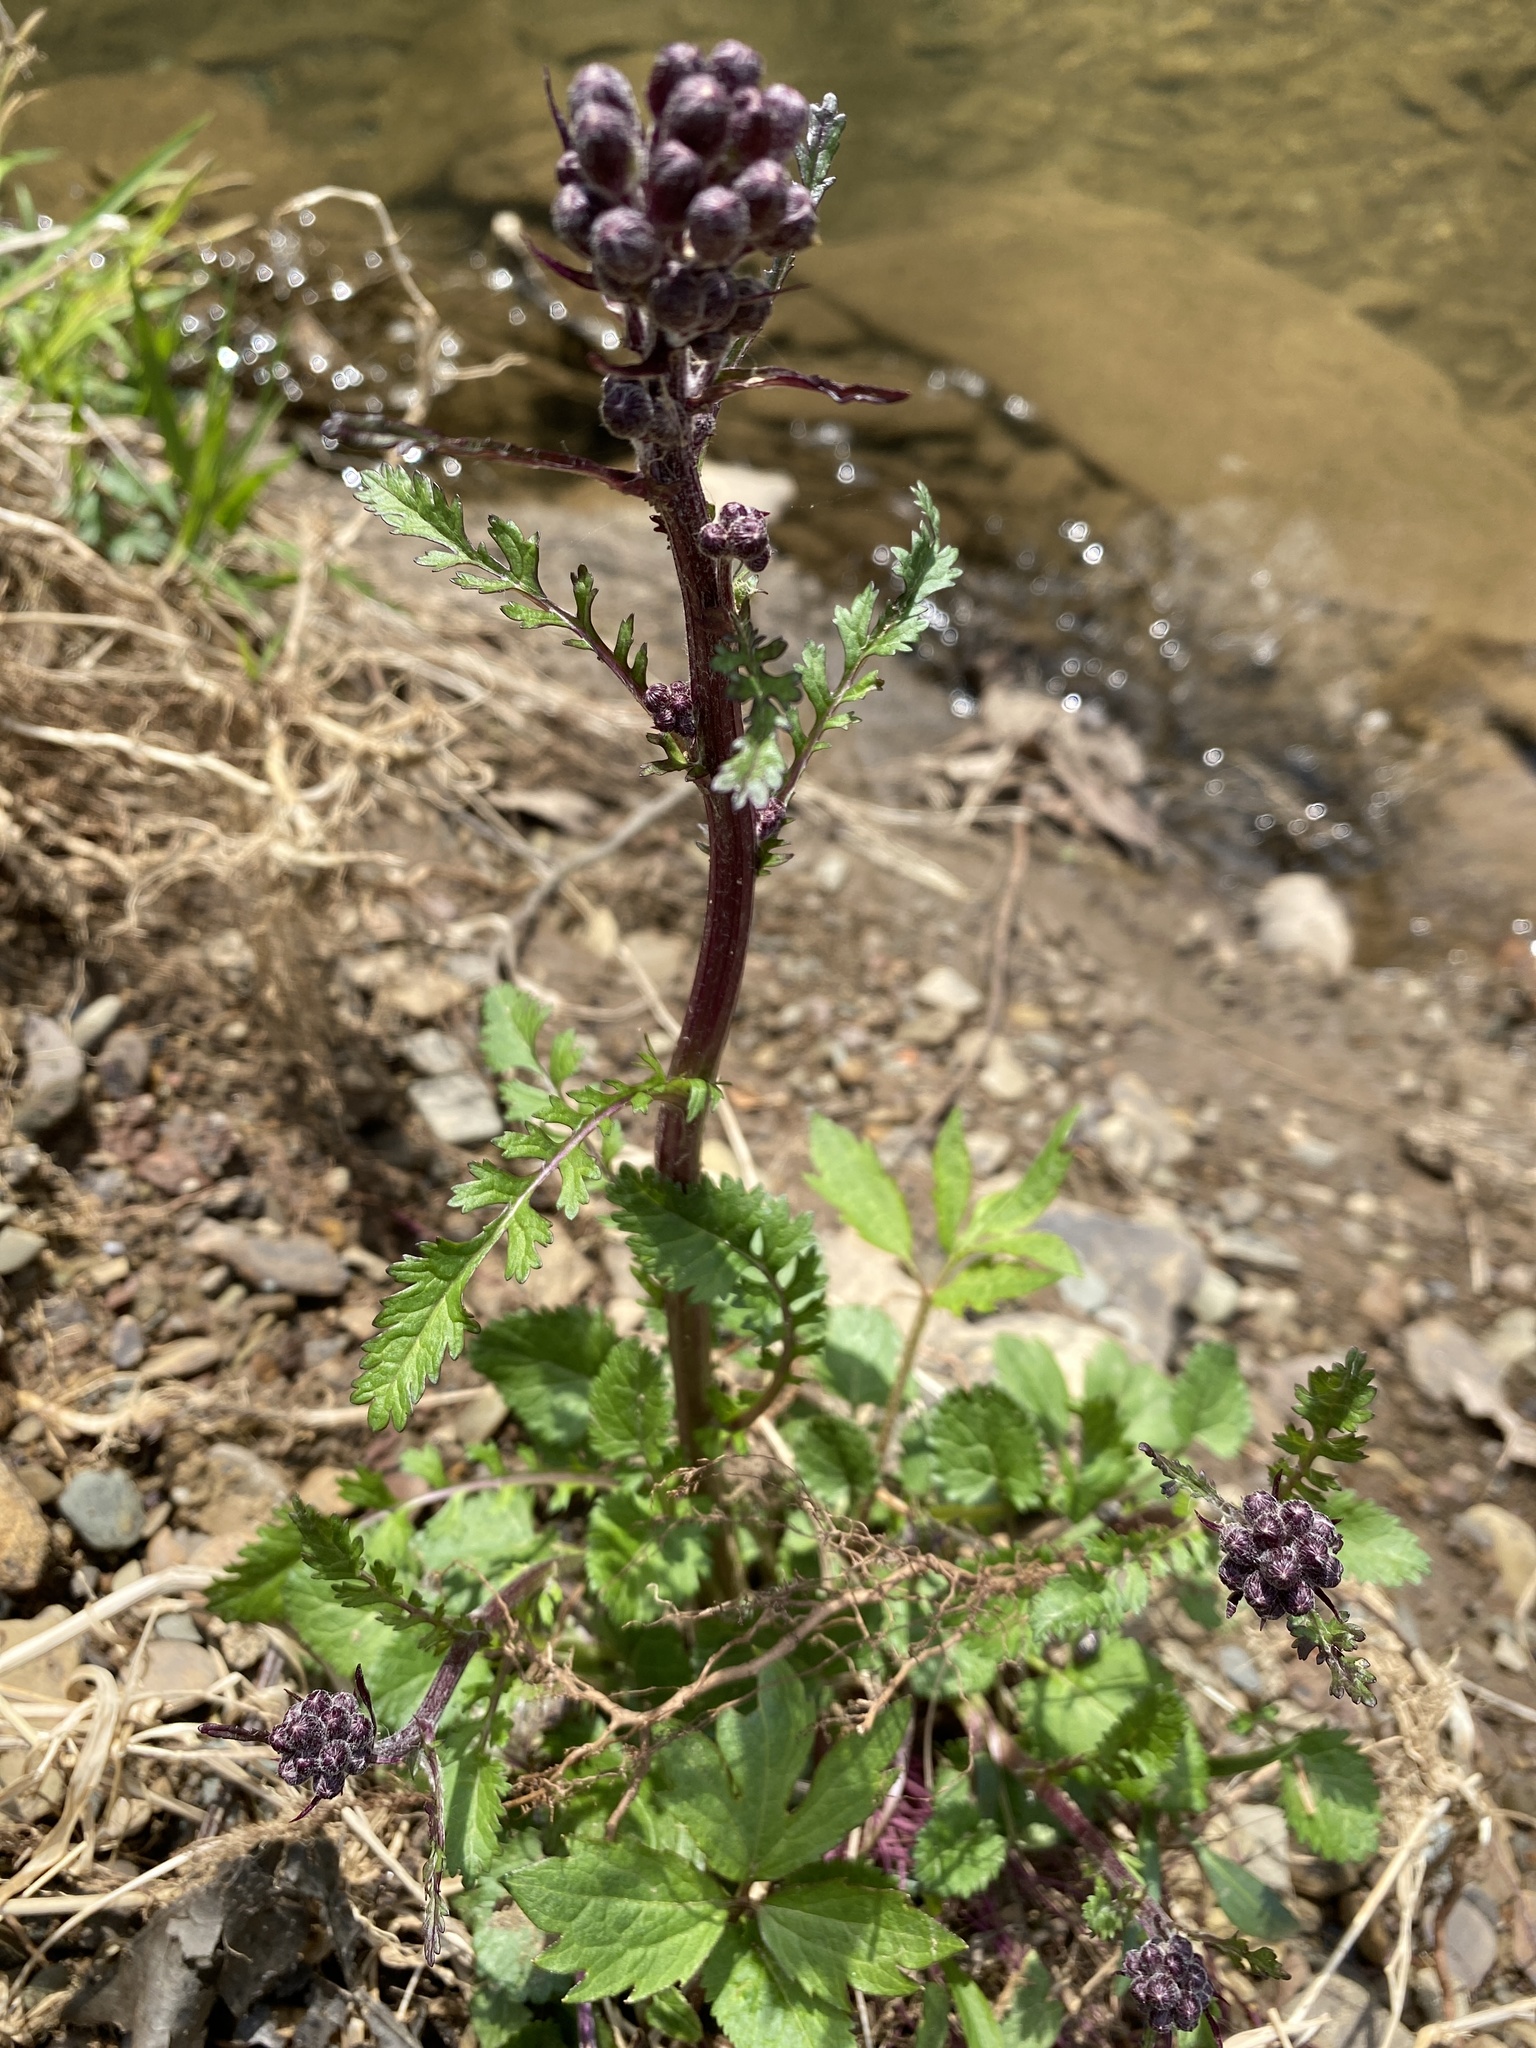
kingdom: Plantae
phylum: Tracheophyta
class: Magnoliopsida
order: Asterales
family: Asteraceae
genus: Packera
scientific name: Packera aurea
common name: Golden groundsel
